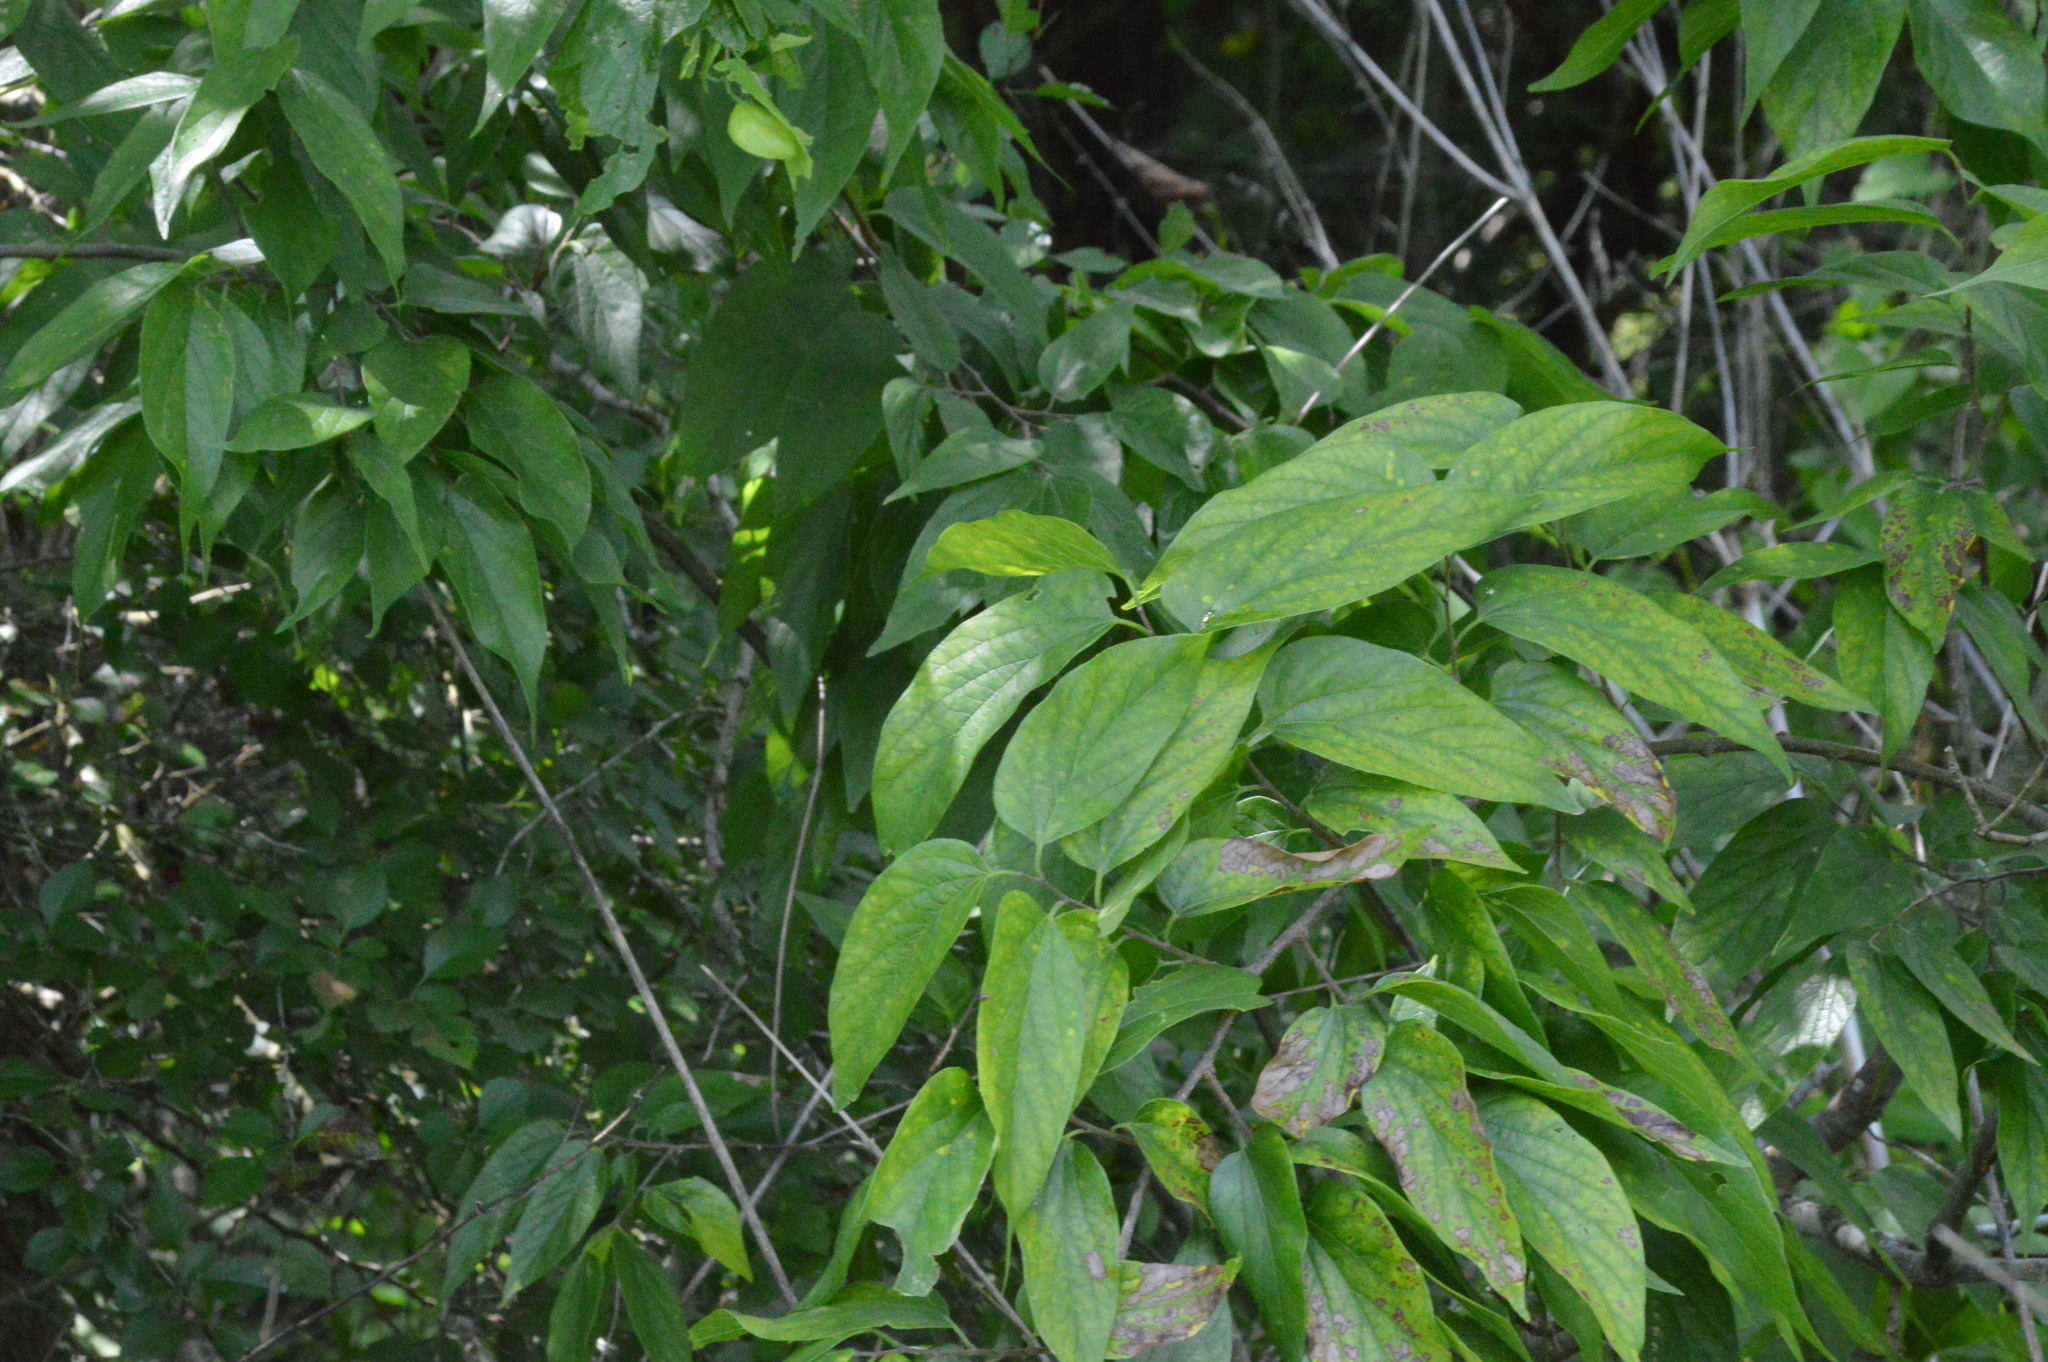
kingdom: Plantae
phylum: Tracheophyta
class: Magnoliopsida
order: Rosales
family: Cannabaceae
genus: Celtis
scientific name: Celtis laevigata
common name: Sugarberry
